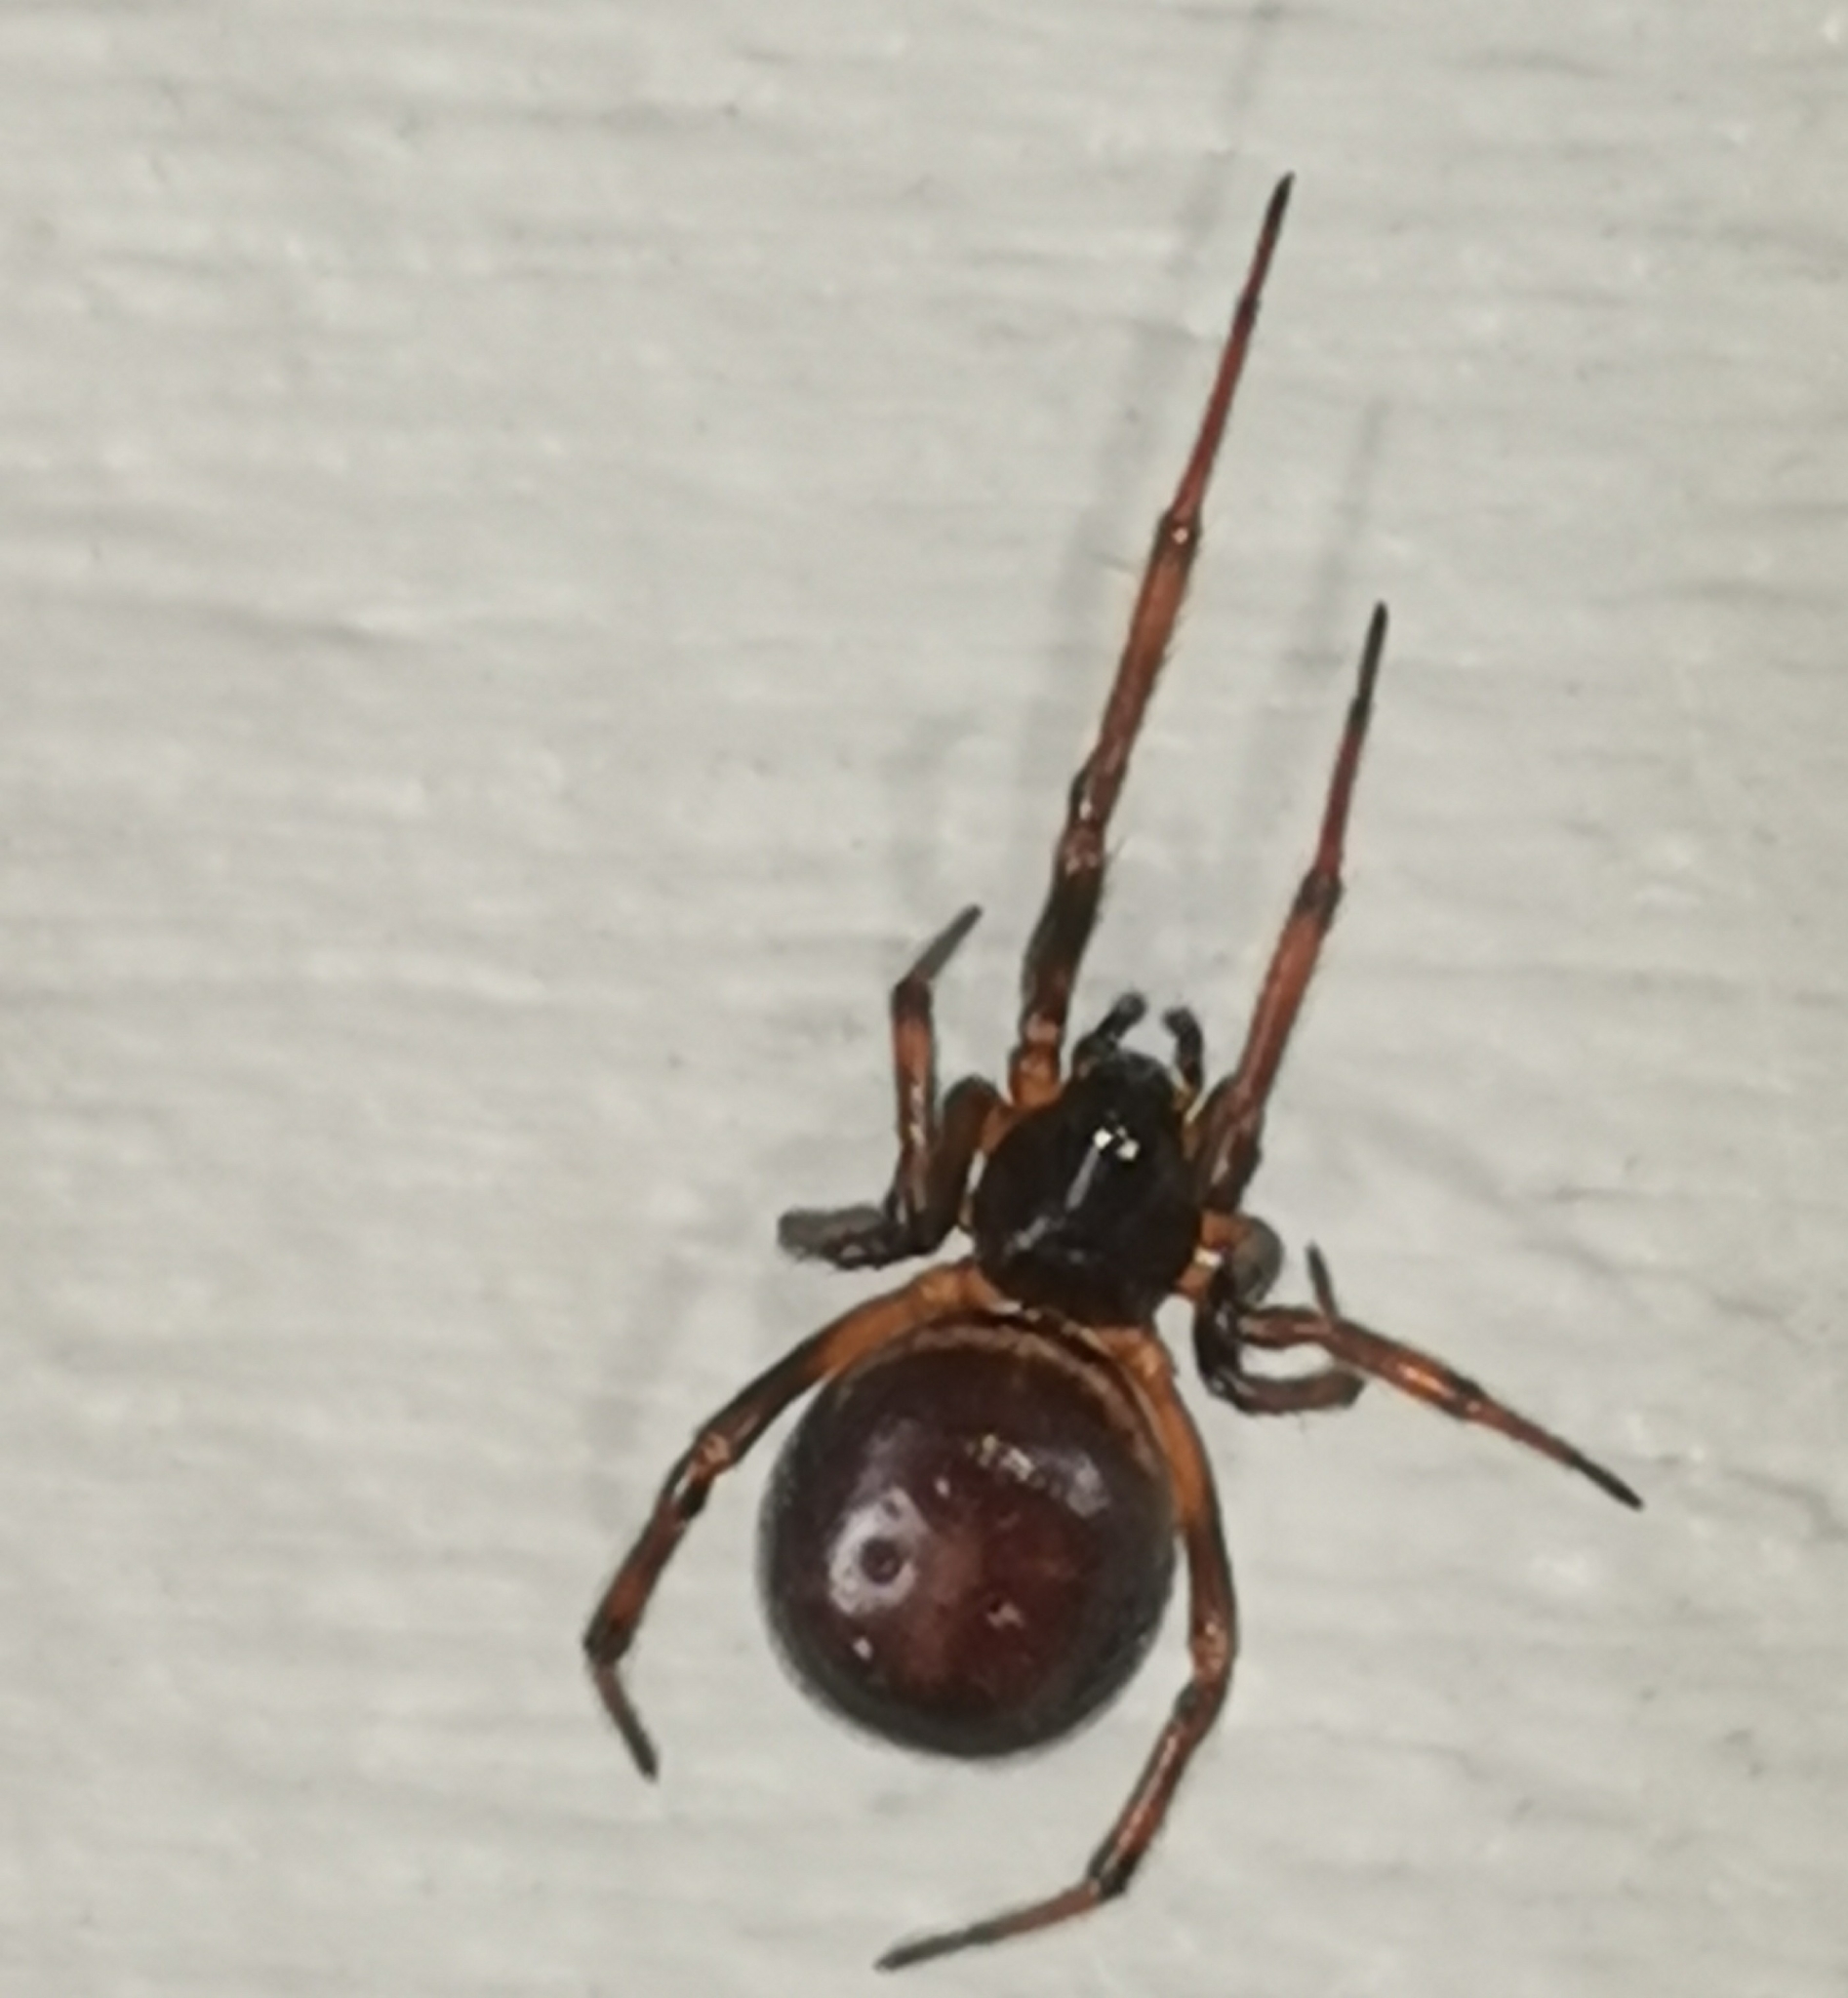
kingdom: Animalia
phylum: Arthropoda
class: Arachnida
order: Araneae
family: Theridiidae
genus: Steatoda
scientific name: Steatoda bipunctata
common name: False widow
